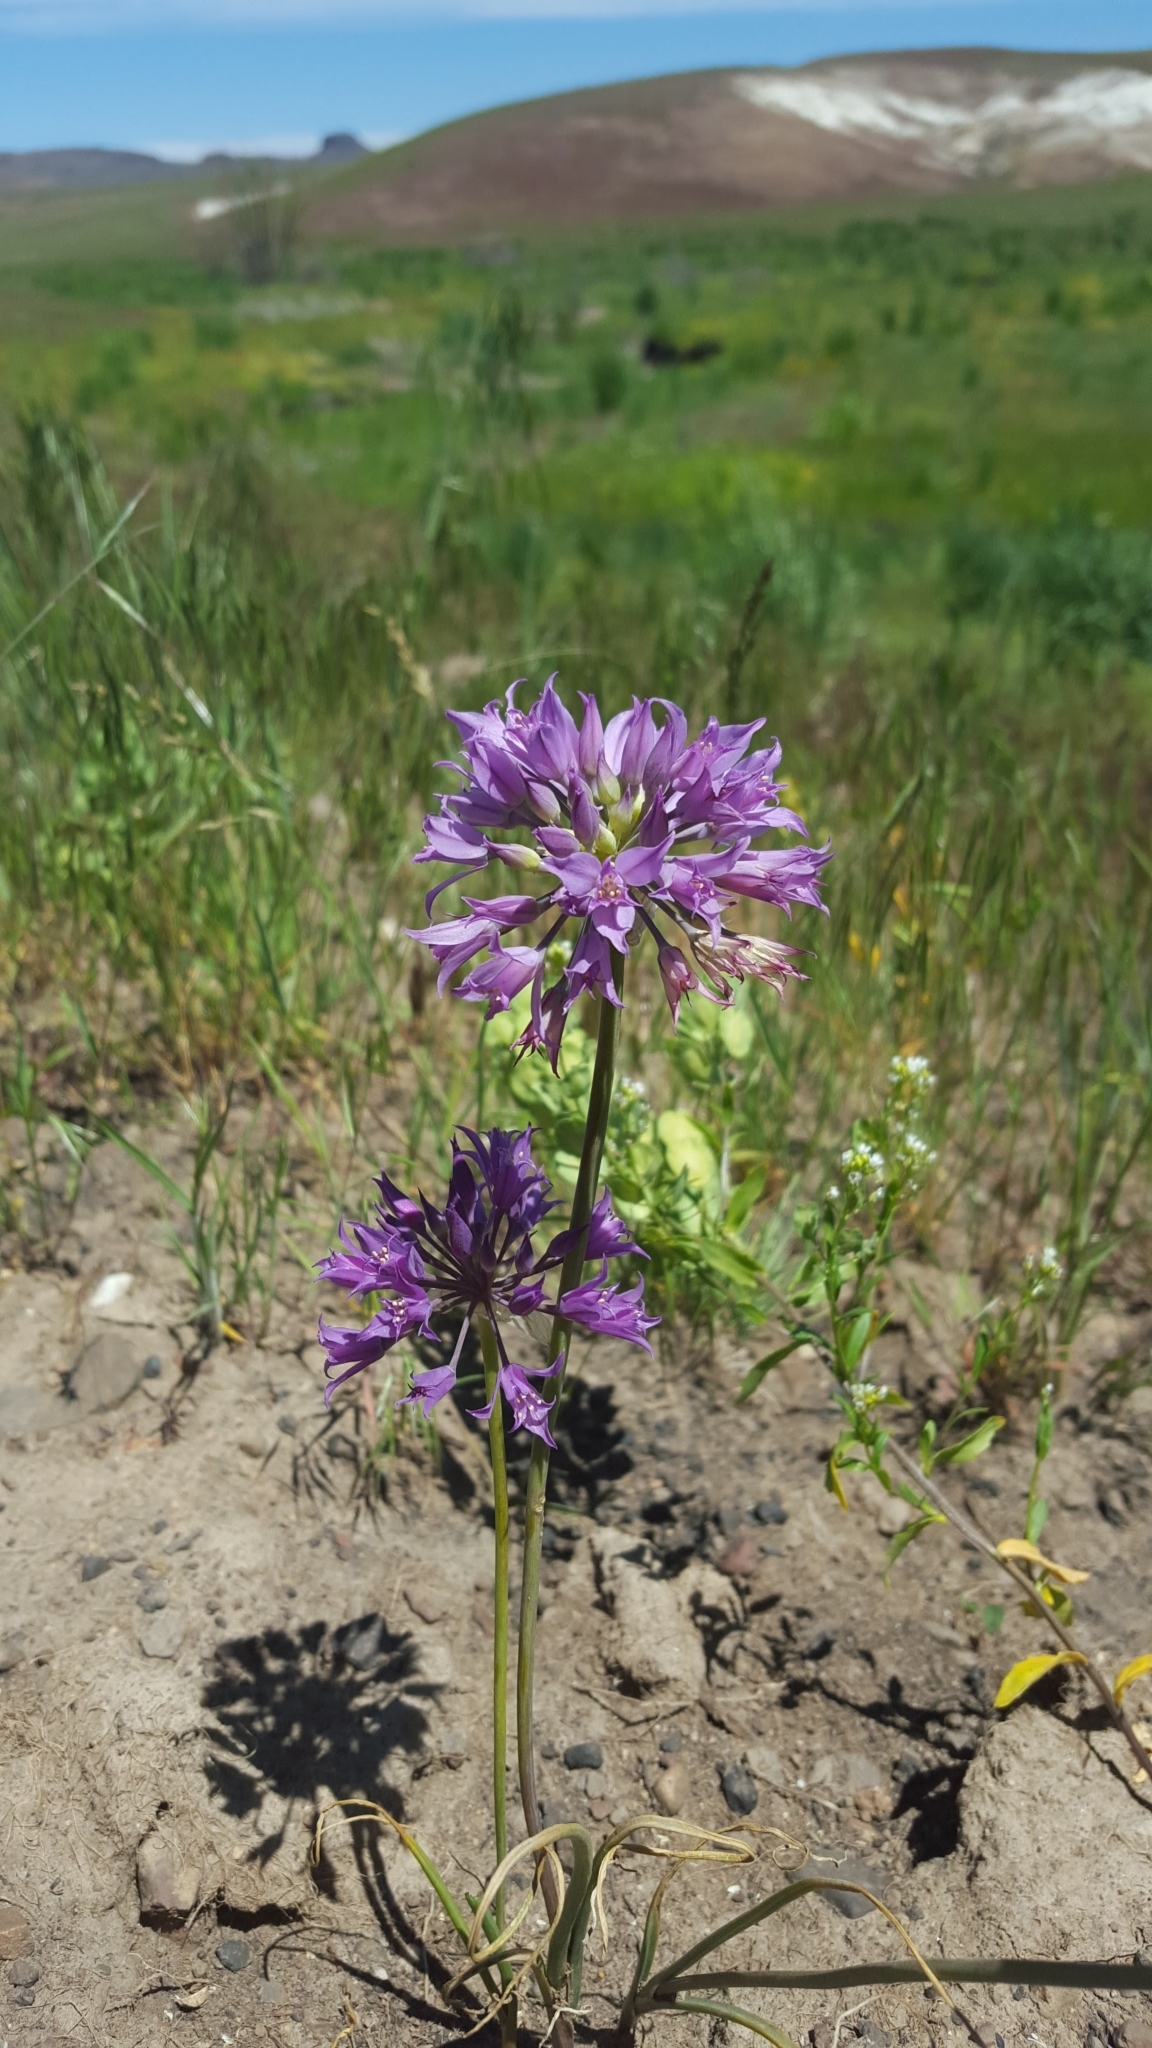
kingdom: Plantae
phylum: Tracheophyta
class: Liliopsida
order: Asparagales
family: Amaryllidaceae
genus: Allium
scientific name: Allium acuminatum
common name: Hooker's onion
